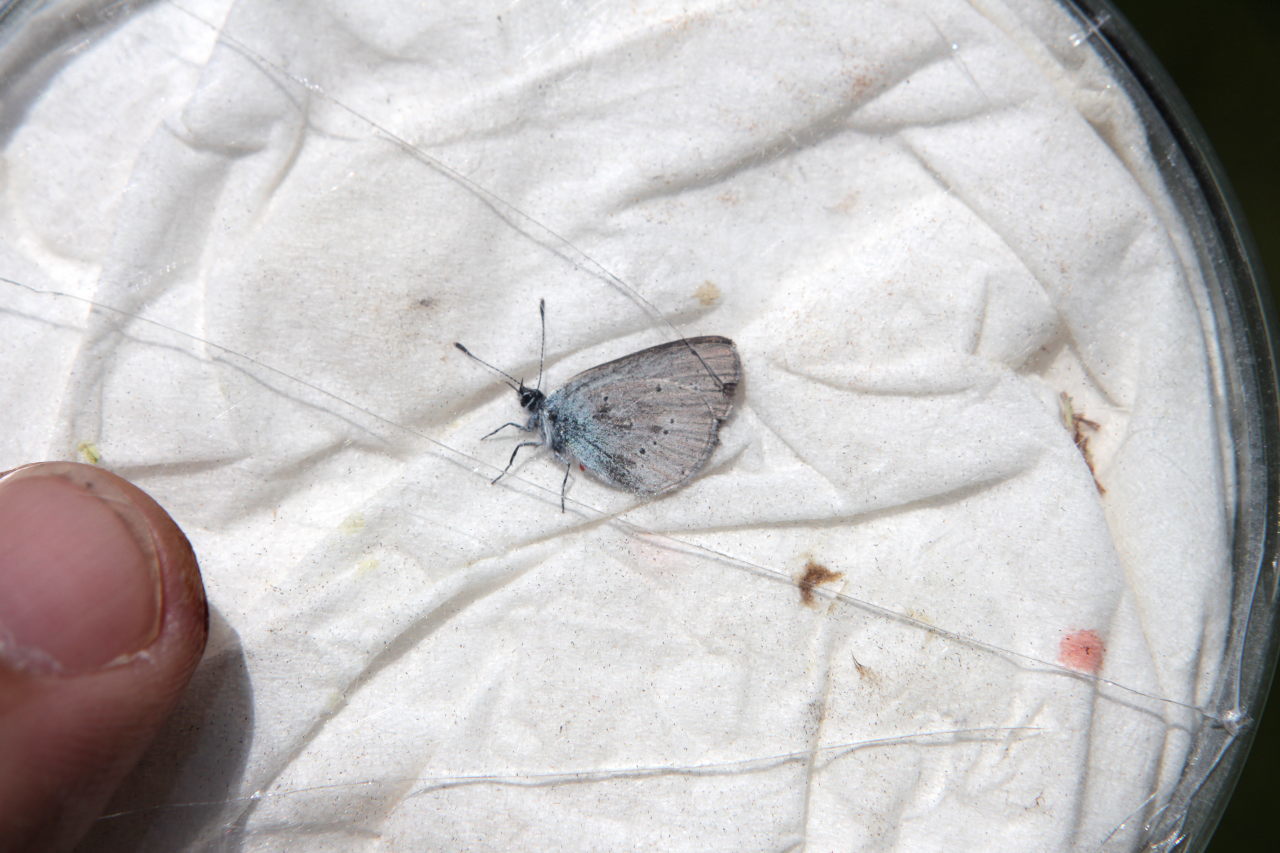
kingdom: Animalia
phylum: Arthropoda
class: Insecta
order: Lepidoptera
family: Lycaenidae
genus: Cupido
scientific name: Cupido minimus
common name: Small blue
